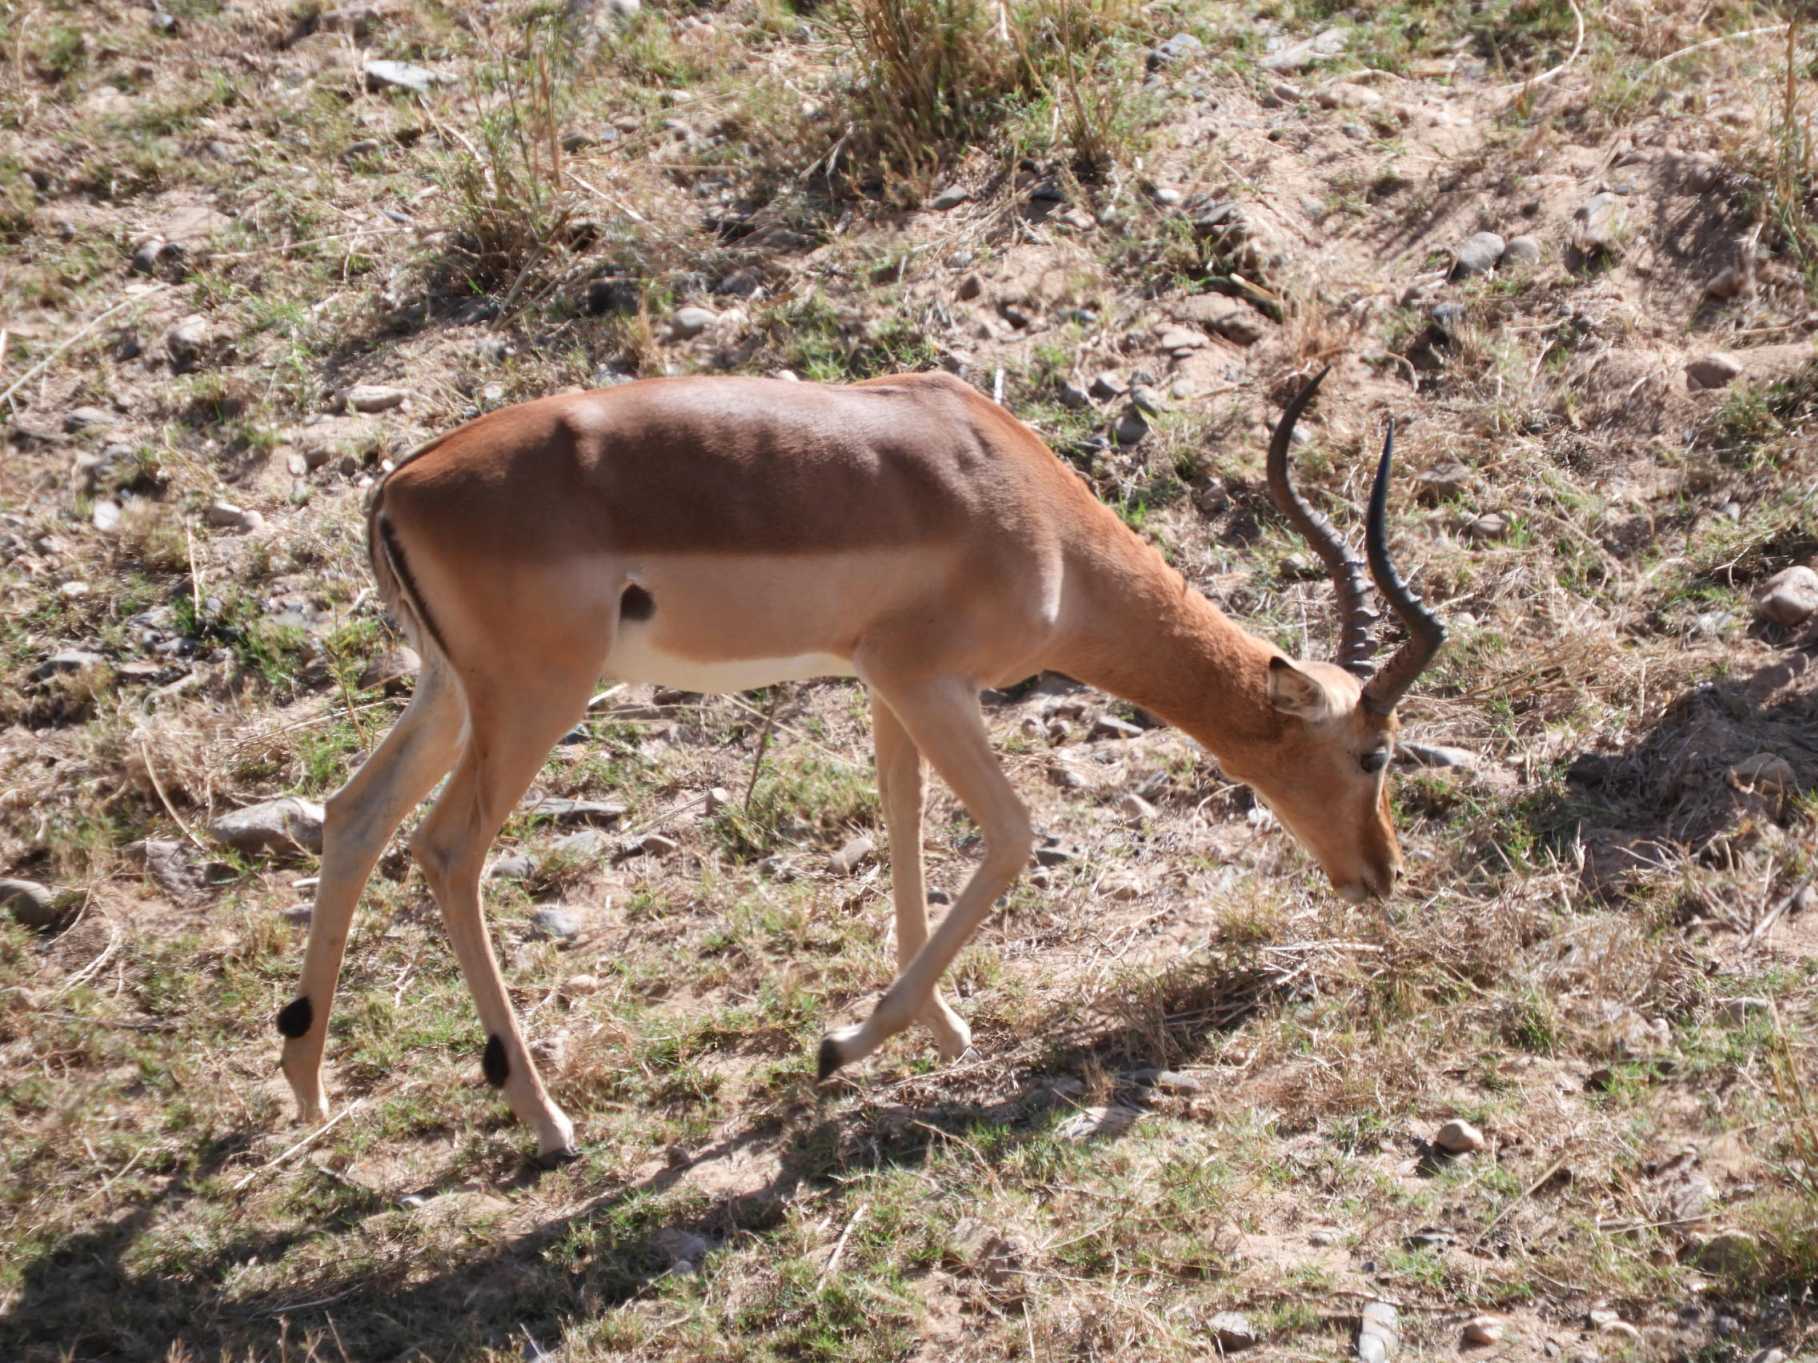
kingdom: Animalia
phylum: Chordata
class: Mammalia
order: Artiodactyla
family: Bovidae
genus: Aepyceros
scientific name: Aepyceros melampus
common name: Impala
